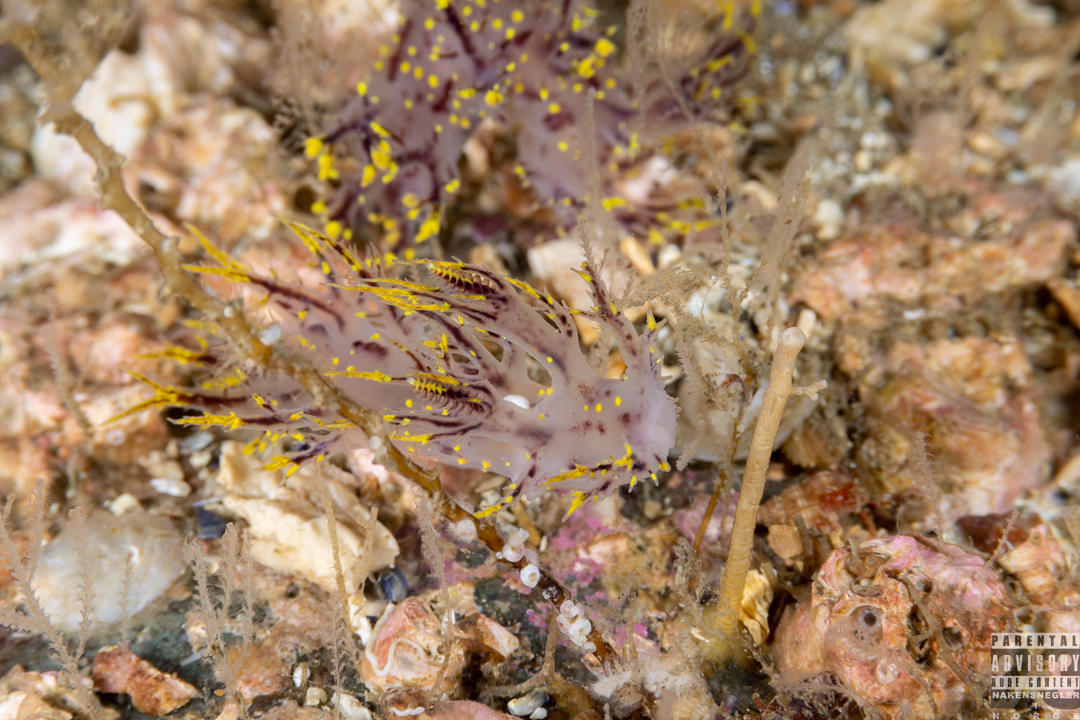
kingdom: Animalia
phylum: Mollusca
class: Gastropoda
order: Nudibranchia
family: Dendronotidae
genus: Dendronotus
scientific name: Dendronotus arcticus
